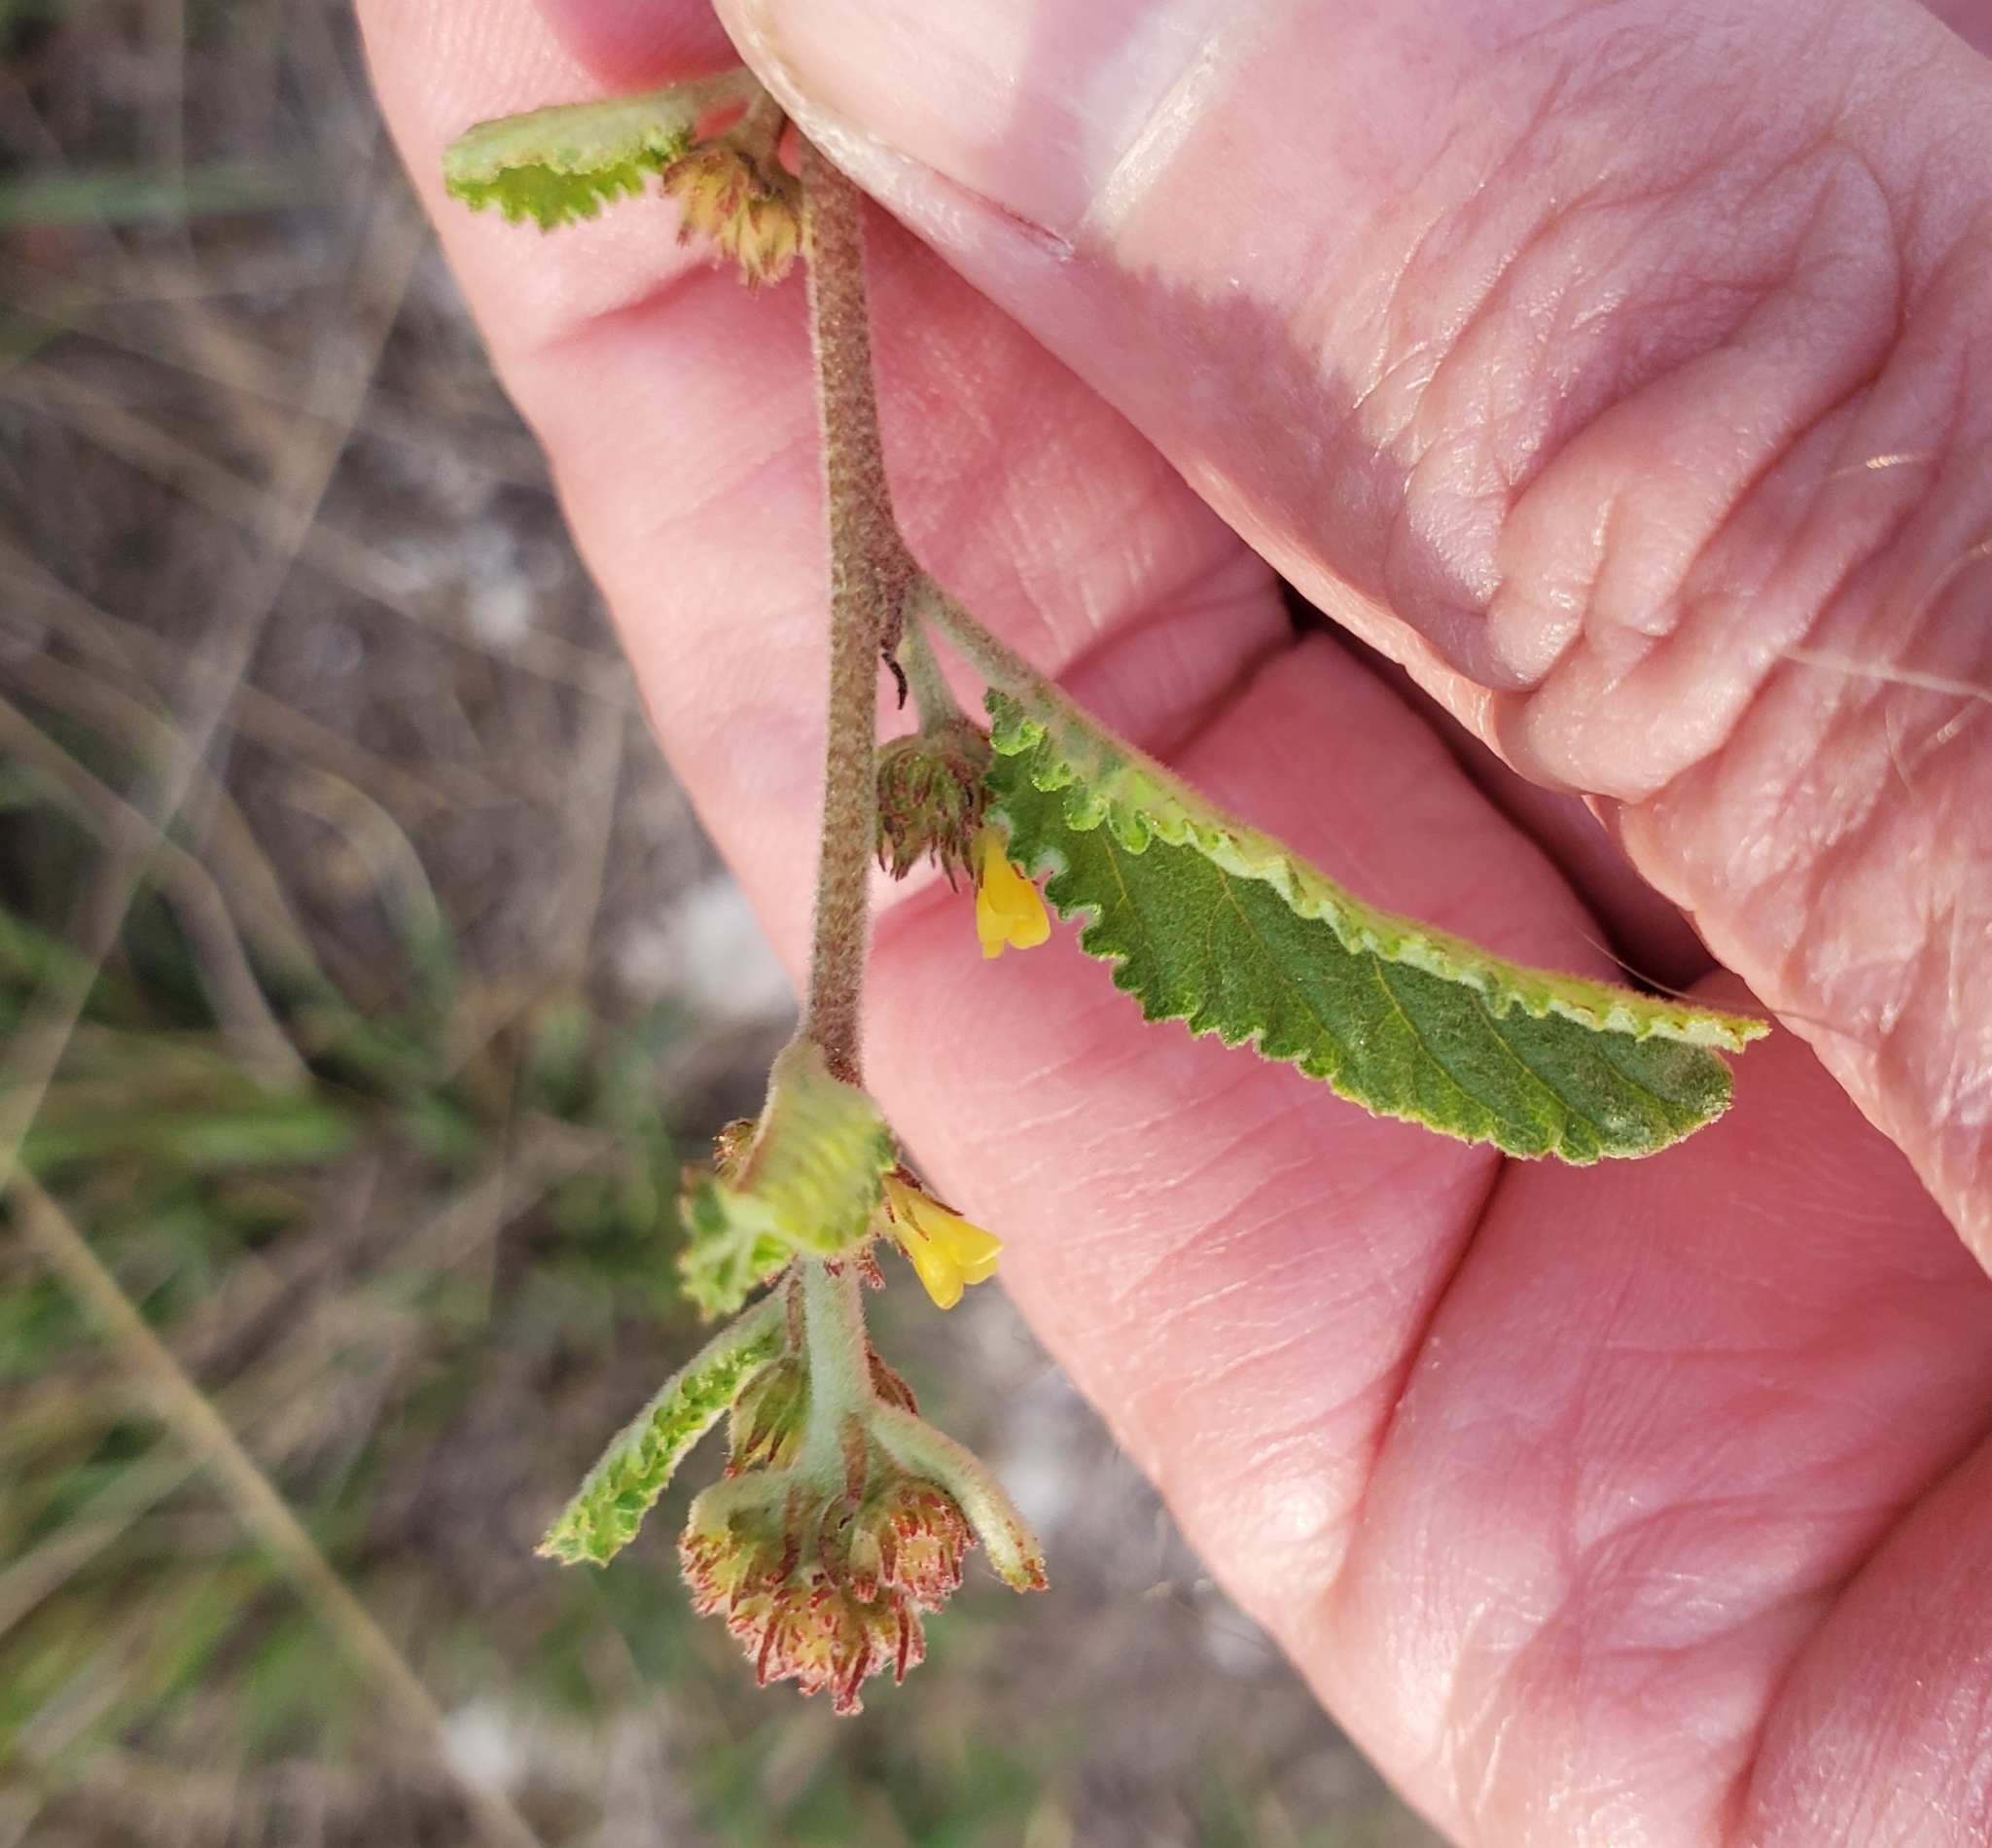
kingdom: Plantae
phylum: Tracheophyta
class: Magnoliopsida
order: Malvales
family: Malvaceae
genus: Waltheria
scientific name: Waltheria indica
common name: Leather-coat
